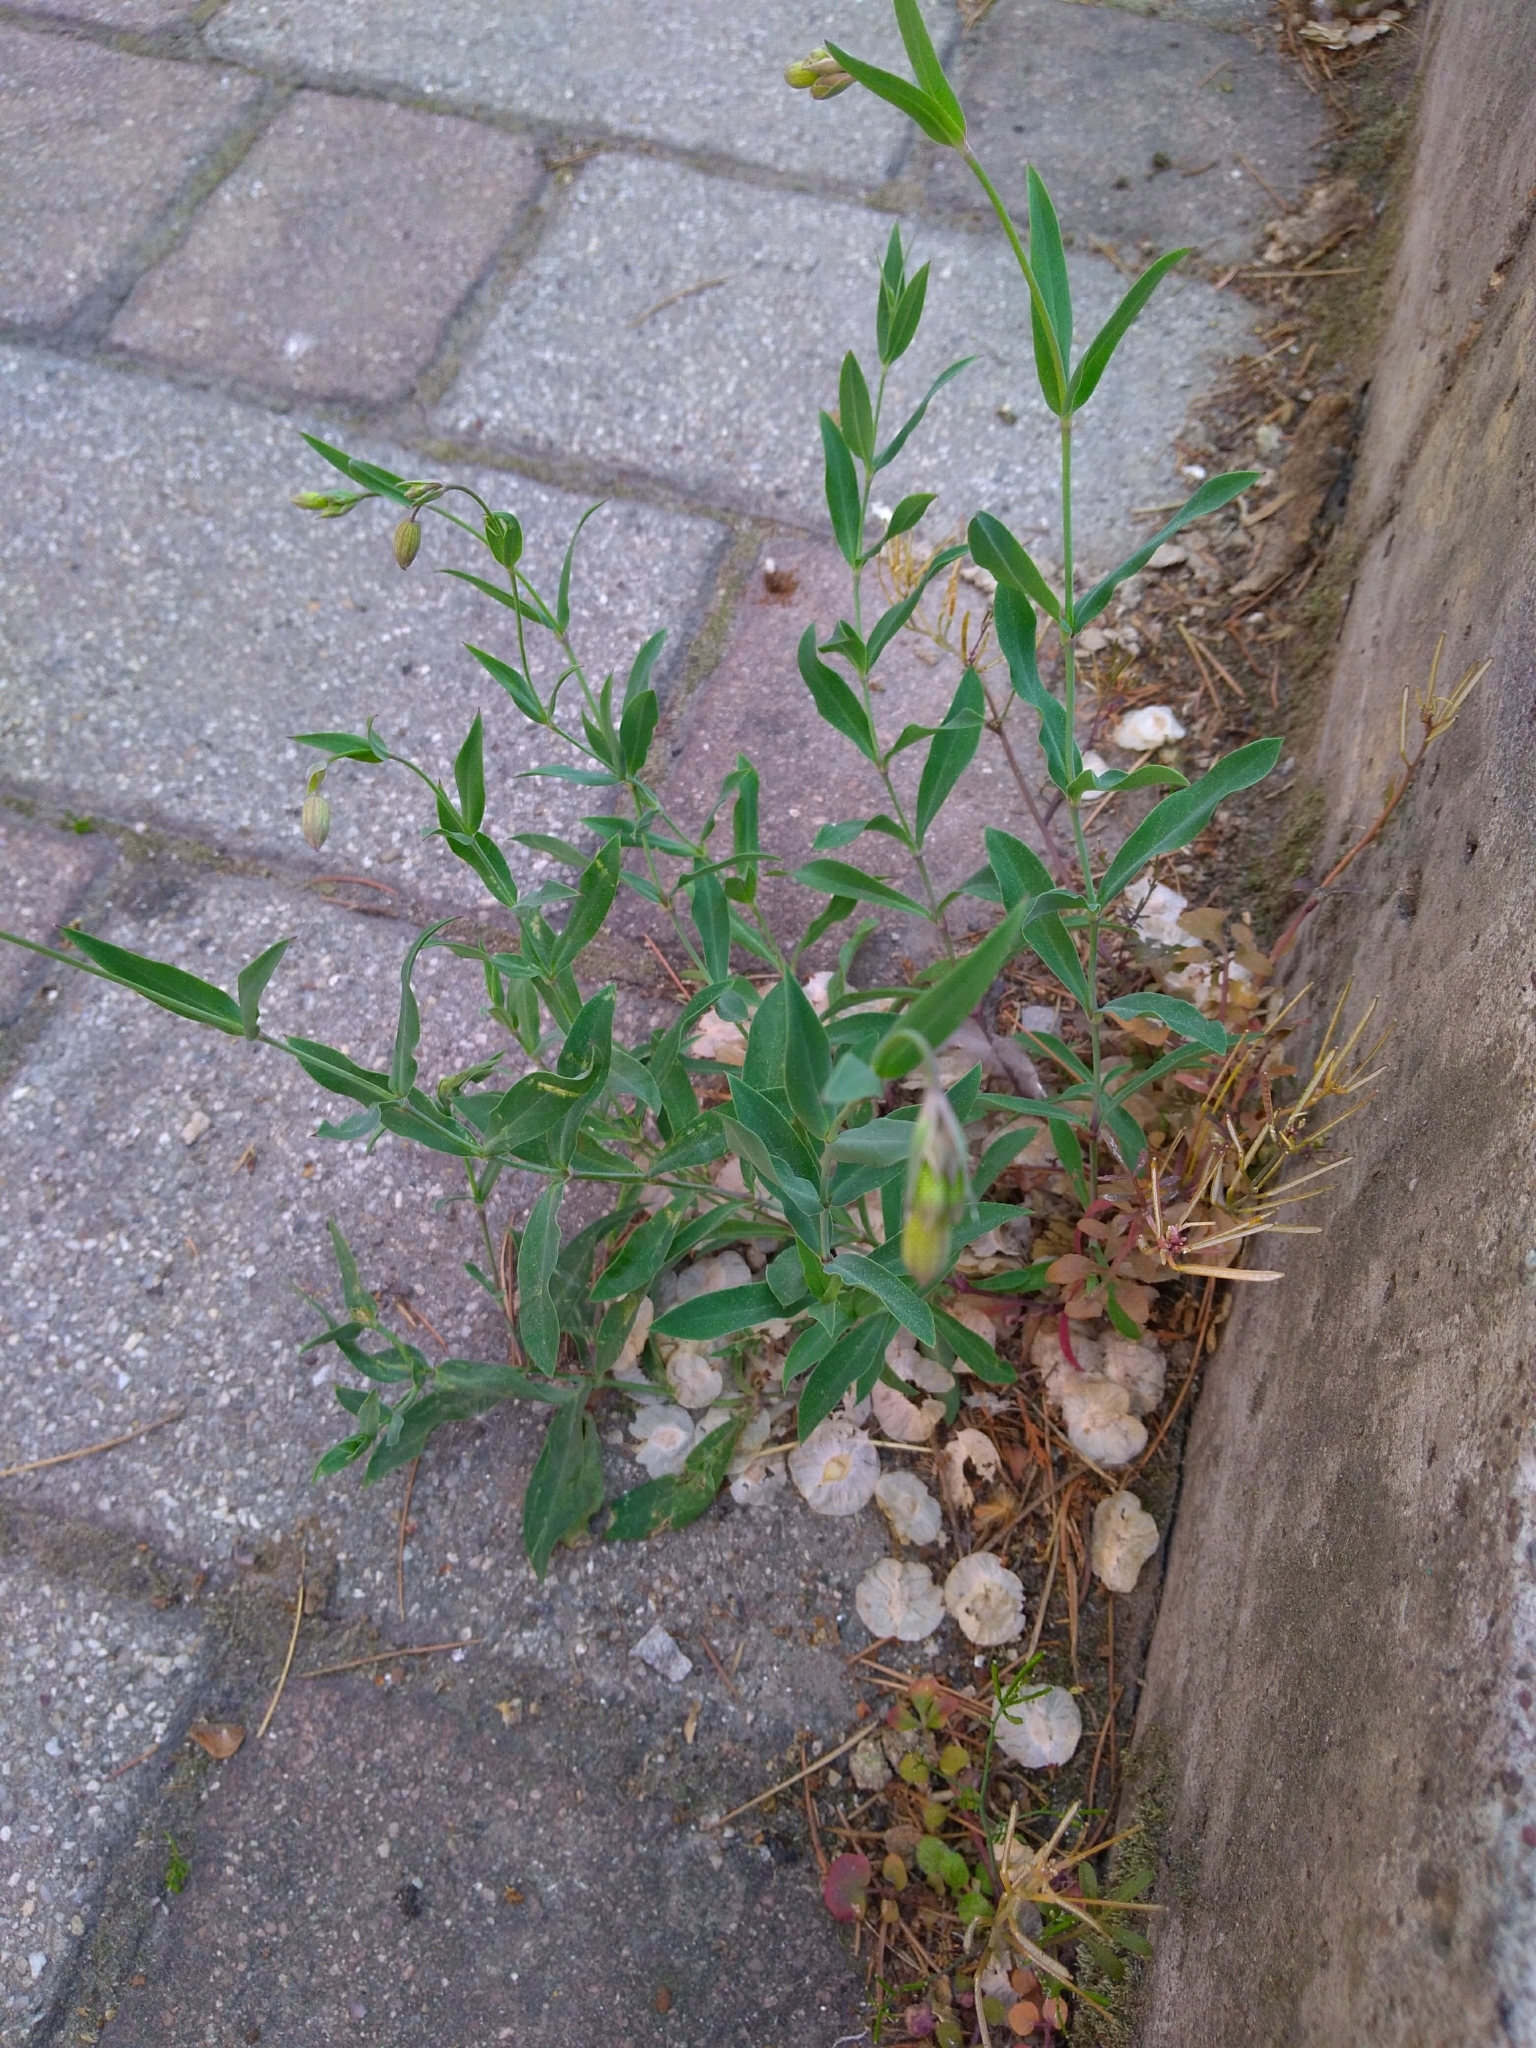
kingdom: Plantae
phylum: Tracheophyta
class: Magnoliopsida
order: Caryophyllales
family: Caryophyllaceae
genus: Silene
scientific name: Silene vulgaris
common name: Bladder campion
